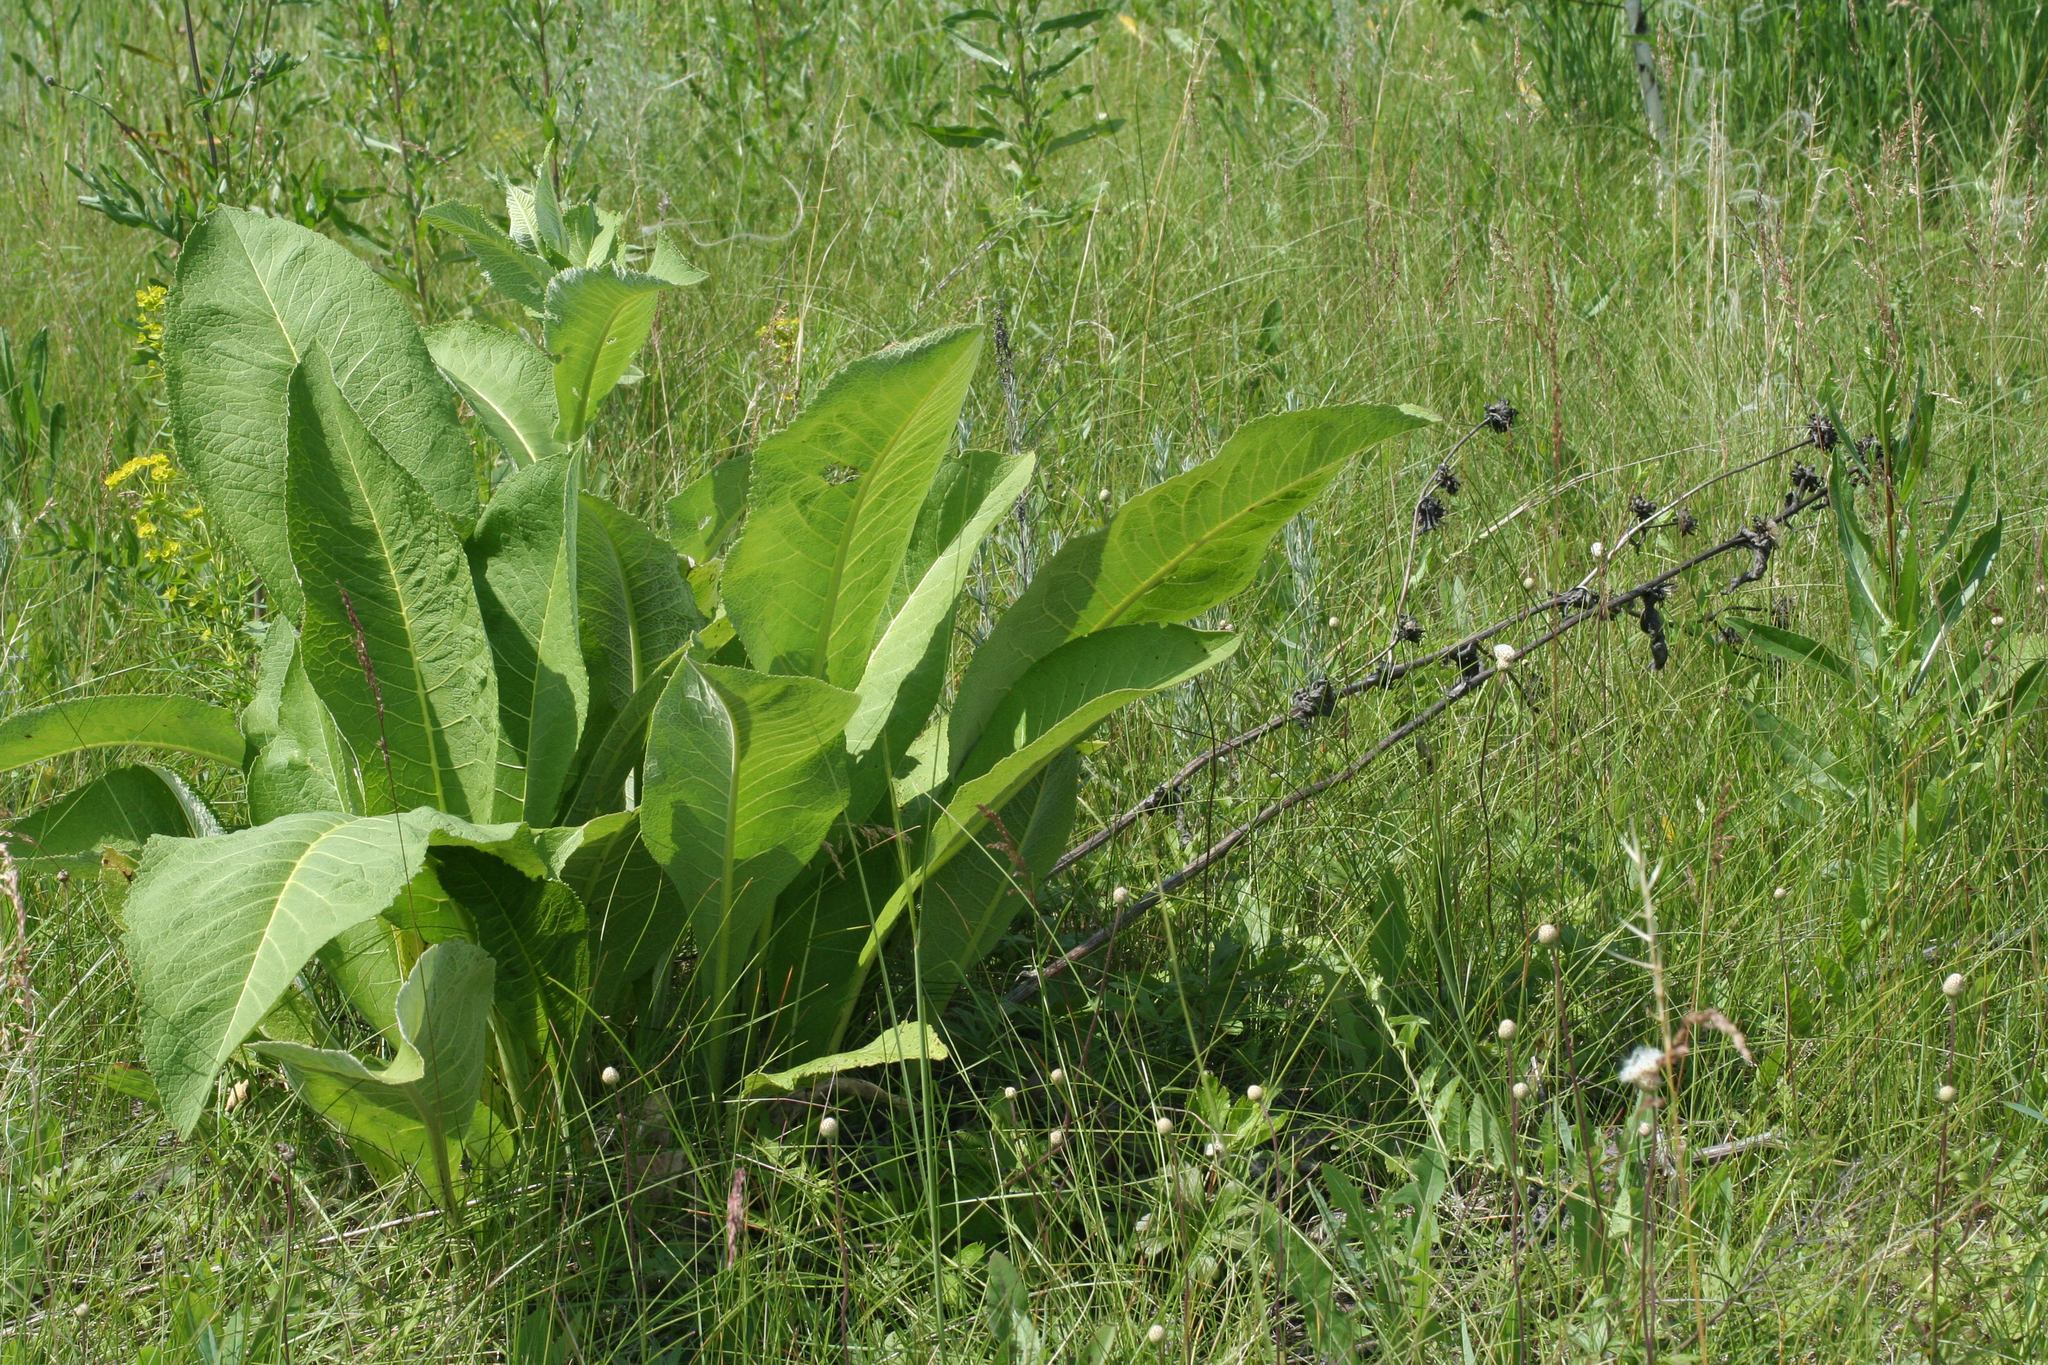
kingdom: Plantae
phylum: Tracheophyta
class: Magnoliopsida
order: Asterales
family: Asteraceae
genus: Inula
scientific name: Inula helenium
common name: Elecampane
